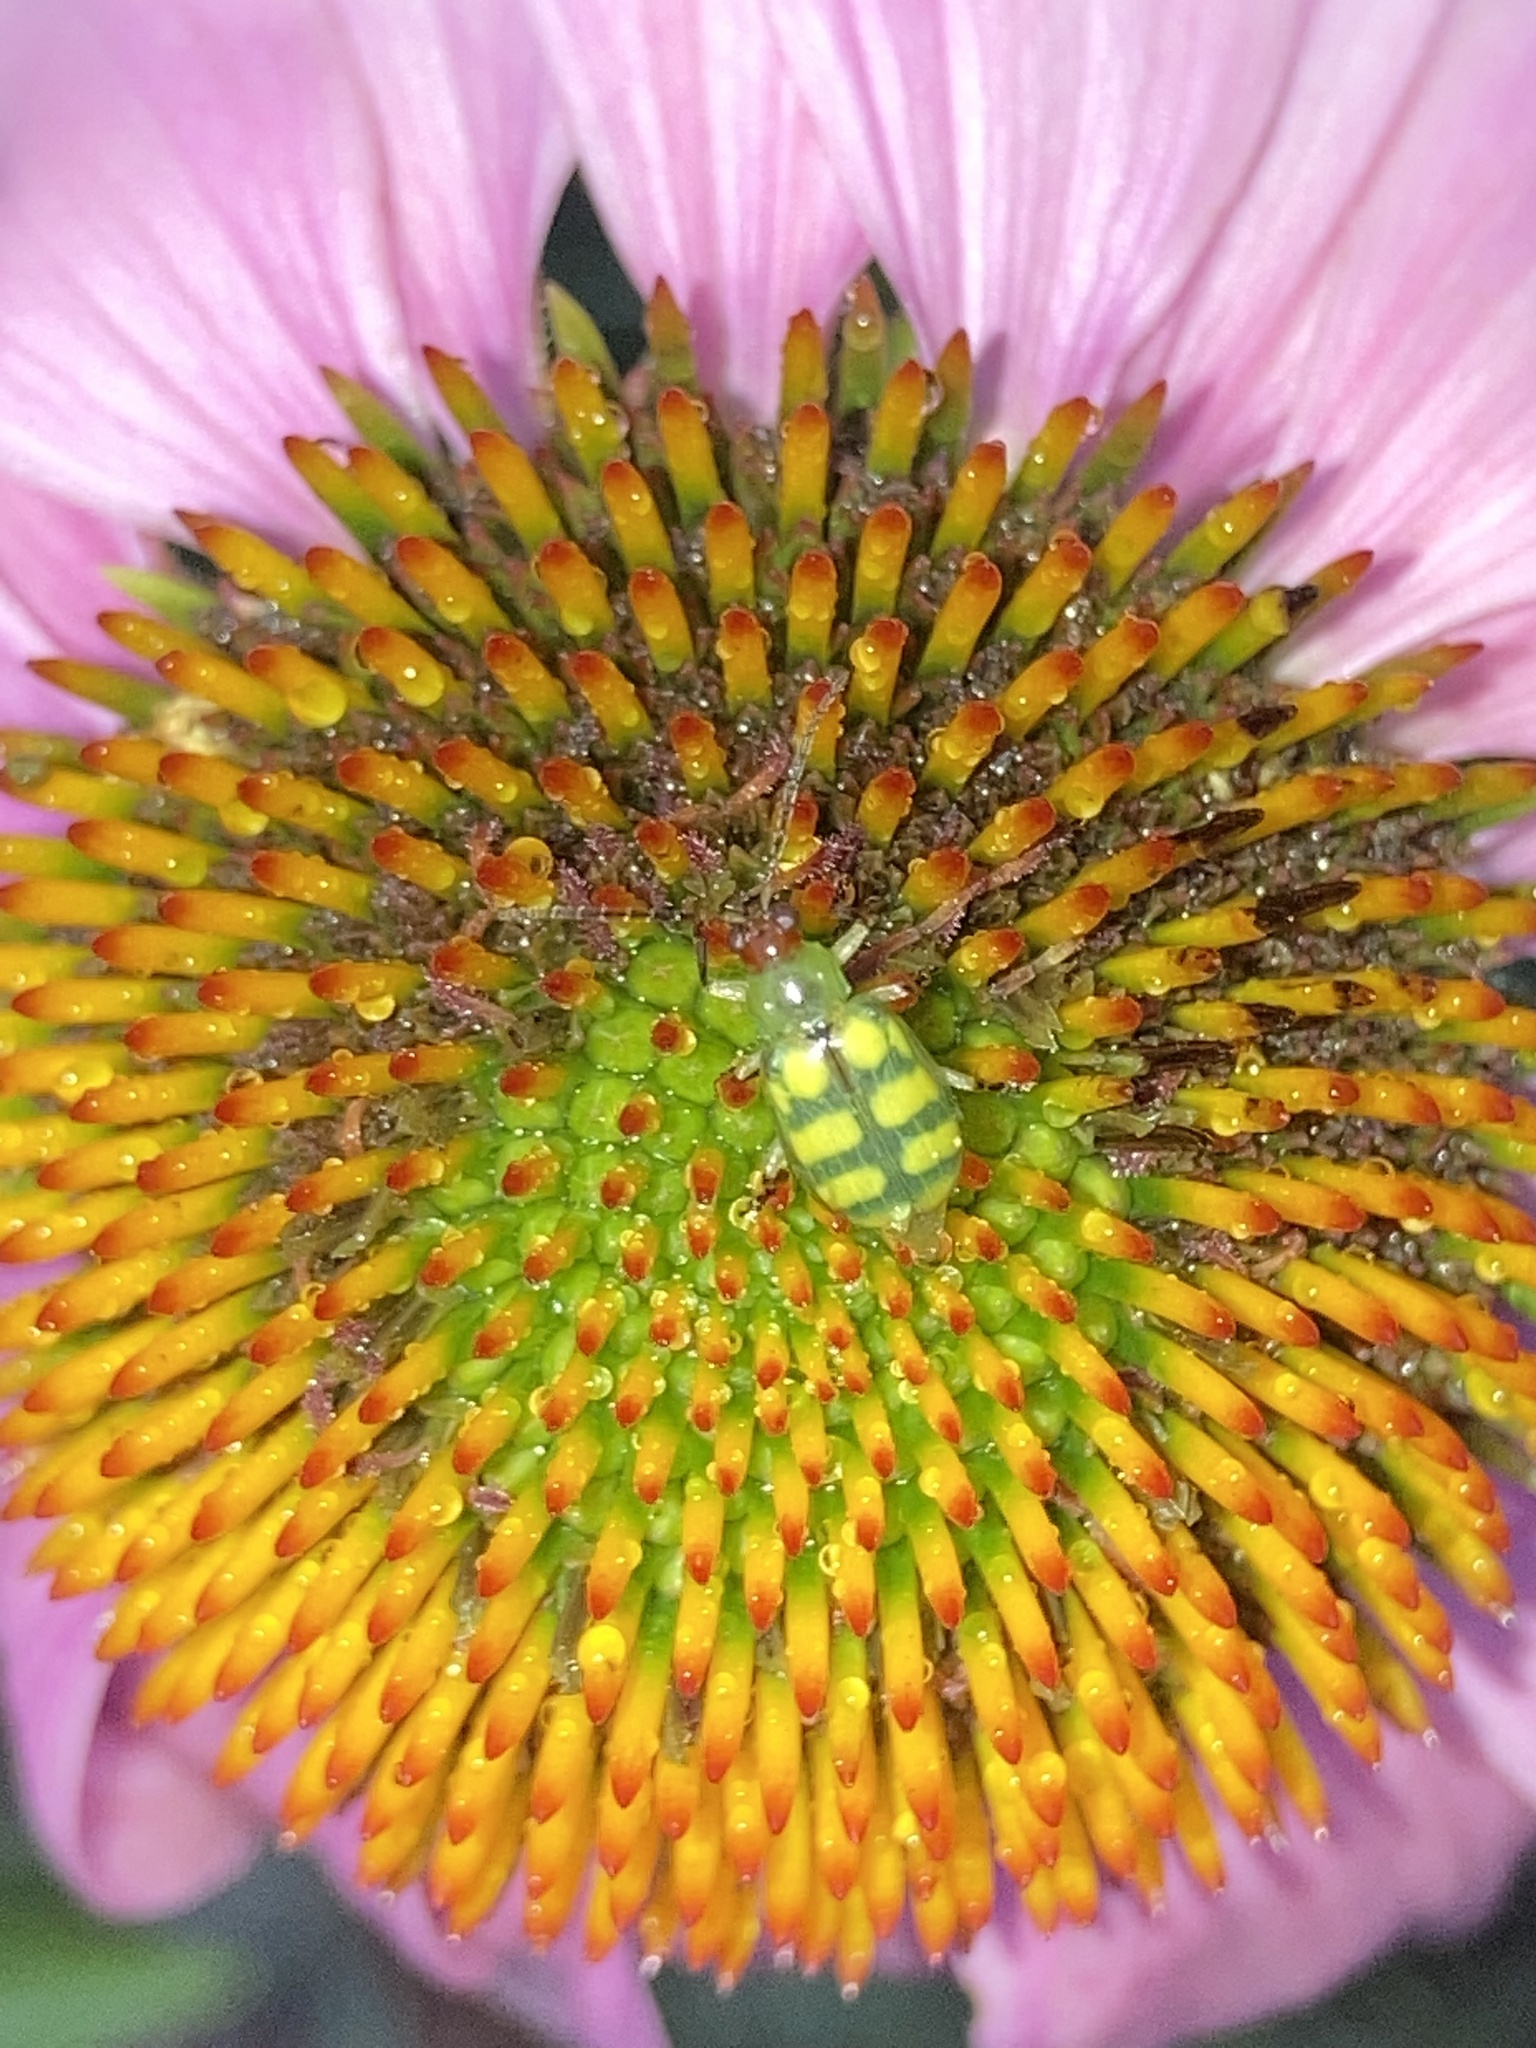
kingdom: Animalia
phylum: Arthropoda
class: Insecta
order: Coleoptera
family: Chrysomelidae
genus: Diabrotica
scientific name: Diabrotica balteata
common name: Leaf beetle
